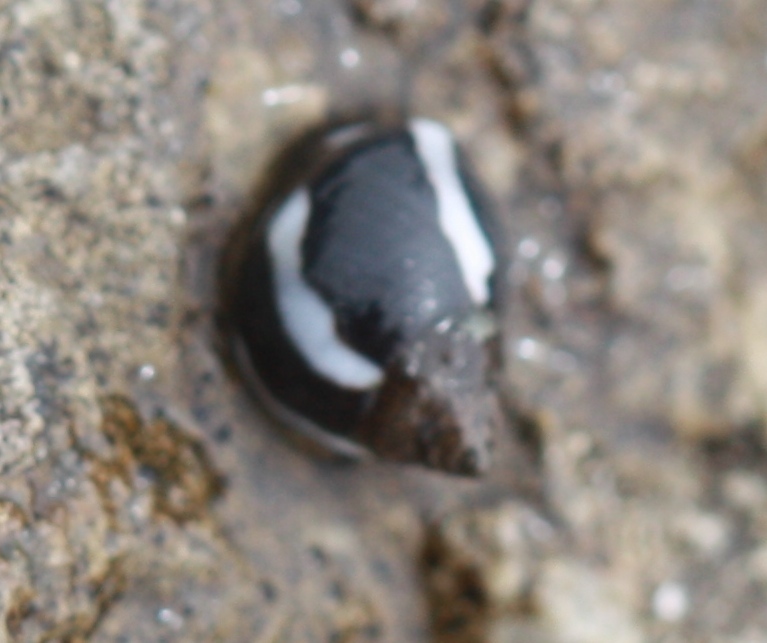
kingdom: Animalia
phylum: Mollusca
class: Gastropoda
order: Littorinimorpha
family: Littorinidae
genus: Echinolittorina
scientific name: Echinolittorina peruviana
